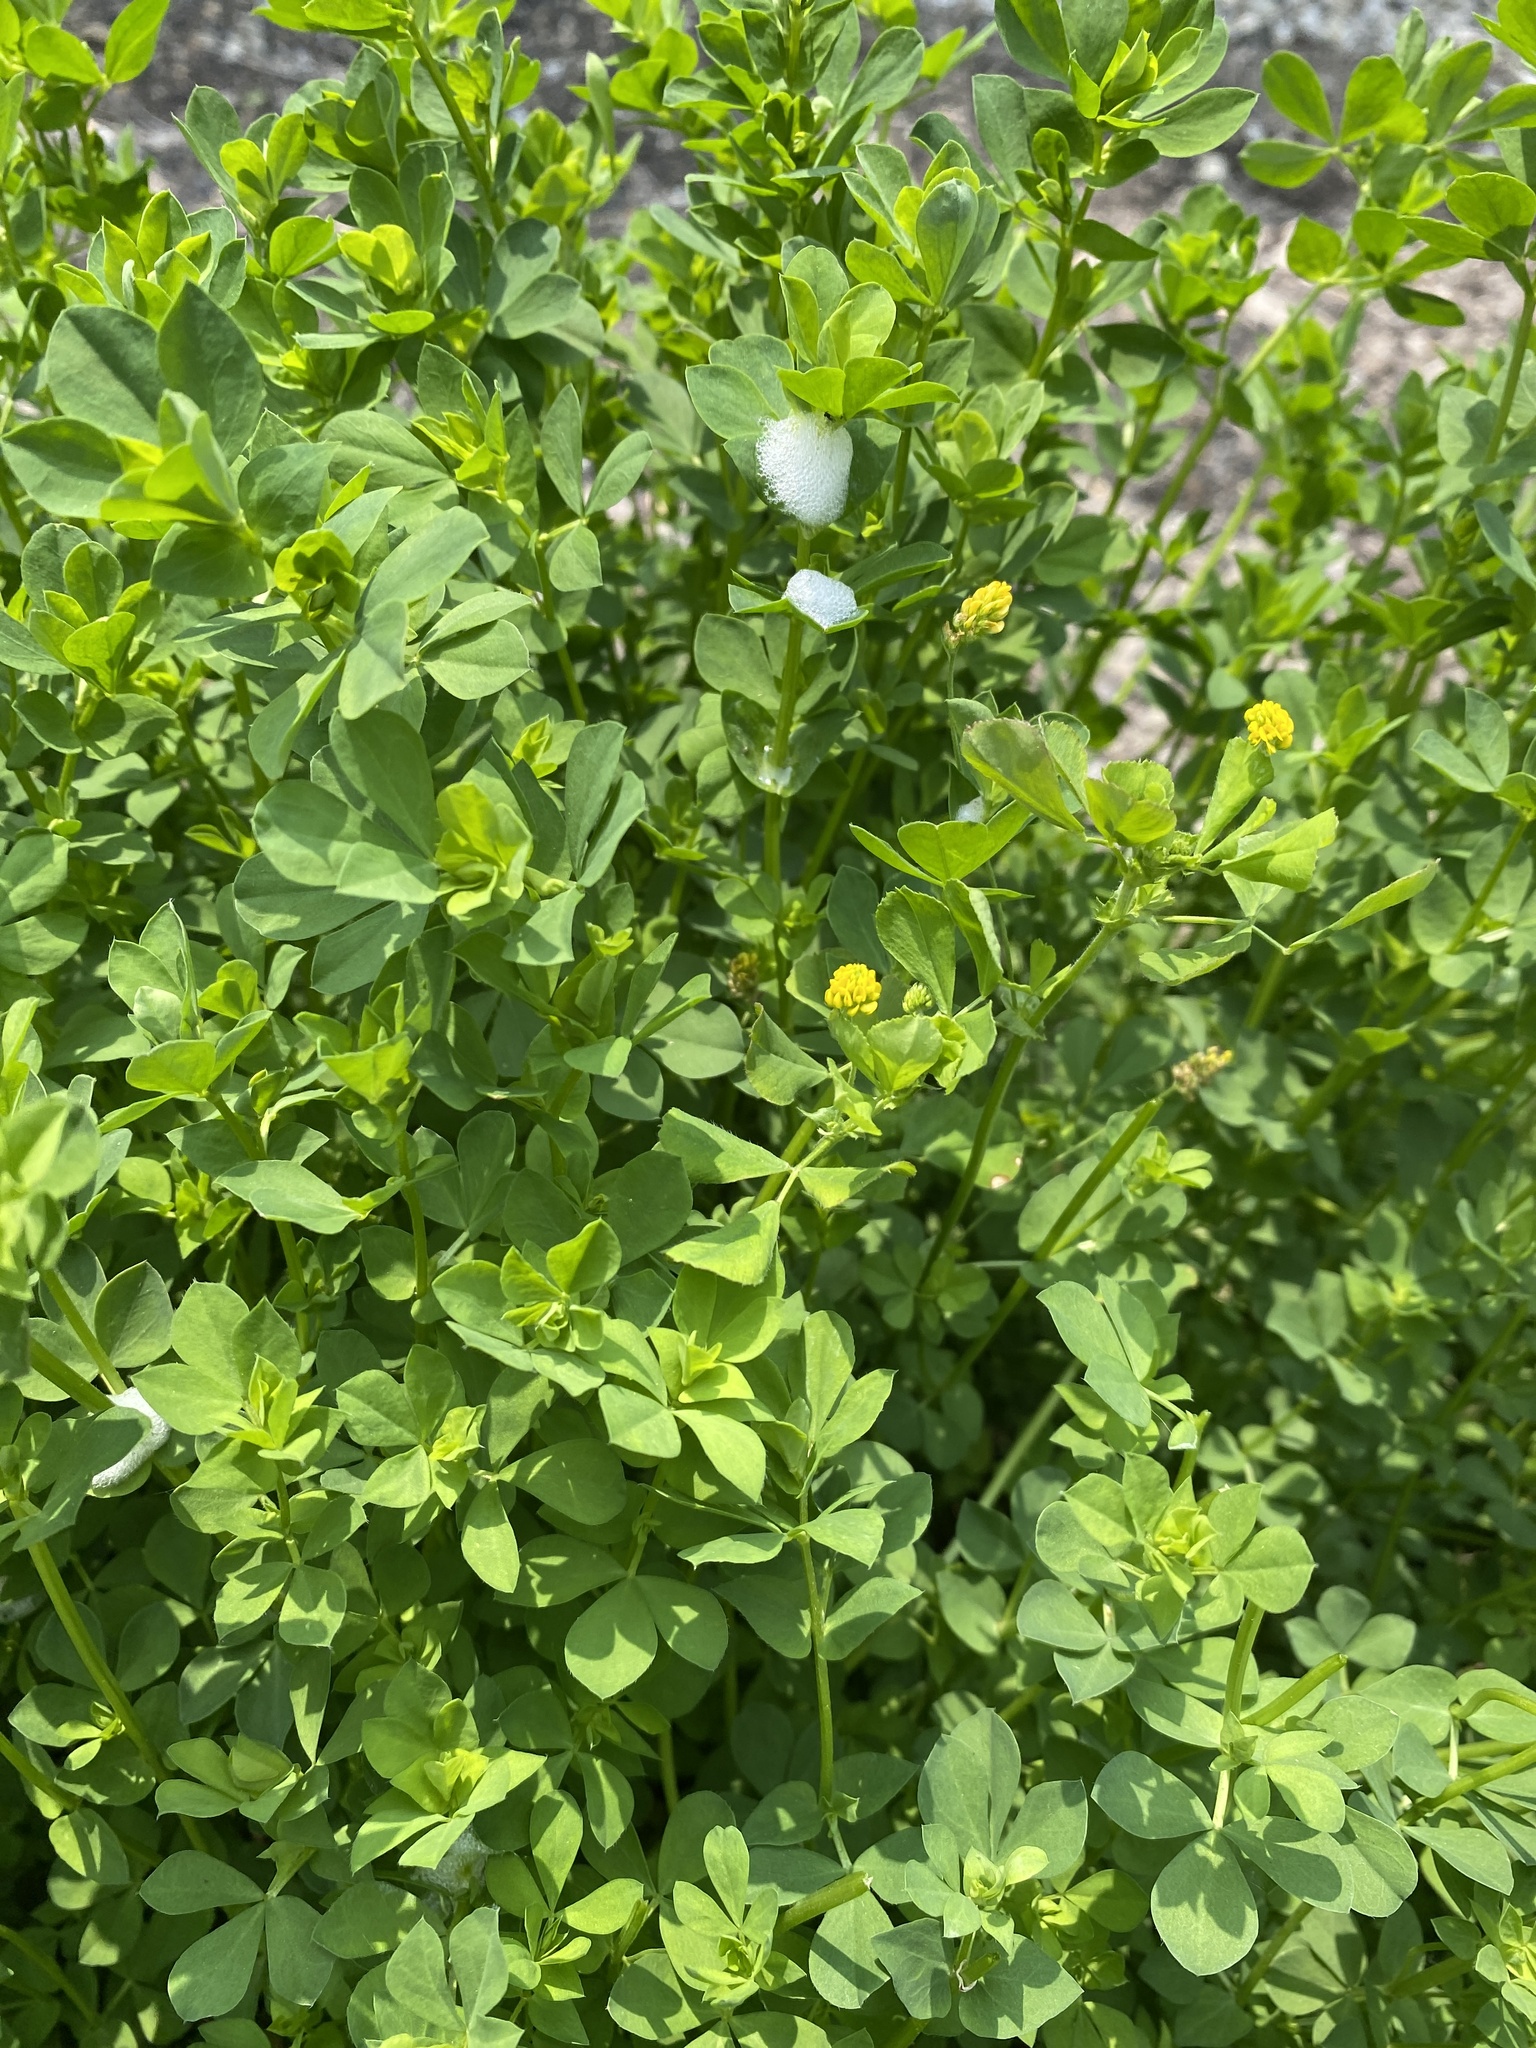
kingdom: Plantae
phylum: Tracheophyta
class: Magnoliopsida
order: Fabales
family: Fabaceae
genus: Medicago
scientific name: Medicago lupulina
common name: Black medick
